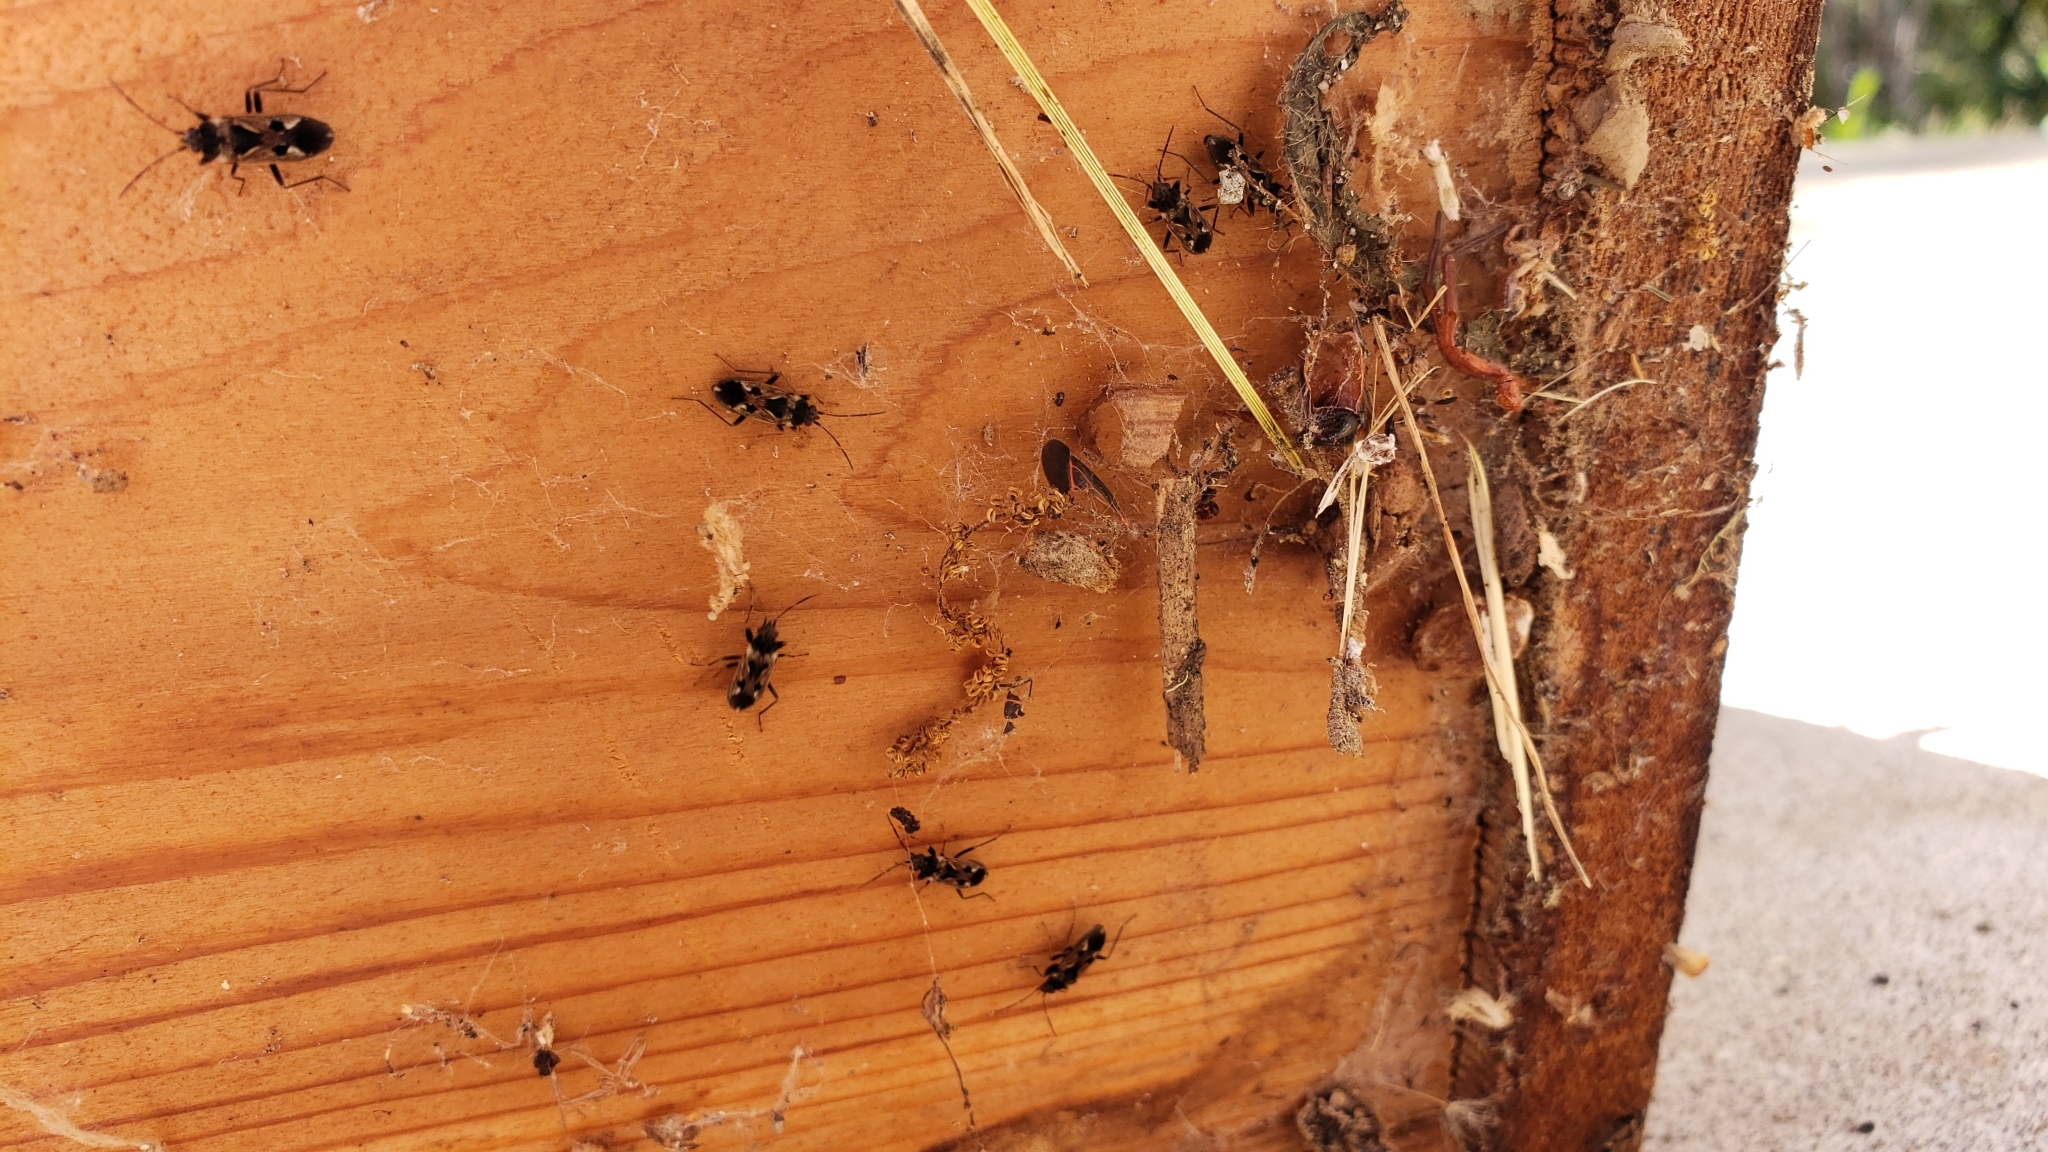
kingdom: Animalia
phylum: Arthropoda
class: Insecta
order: Hemiptera
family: Rhyparochromidae
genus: Rhyparochromus
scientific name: Rhyparochromus vulgaris
